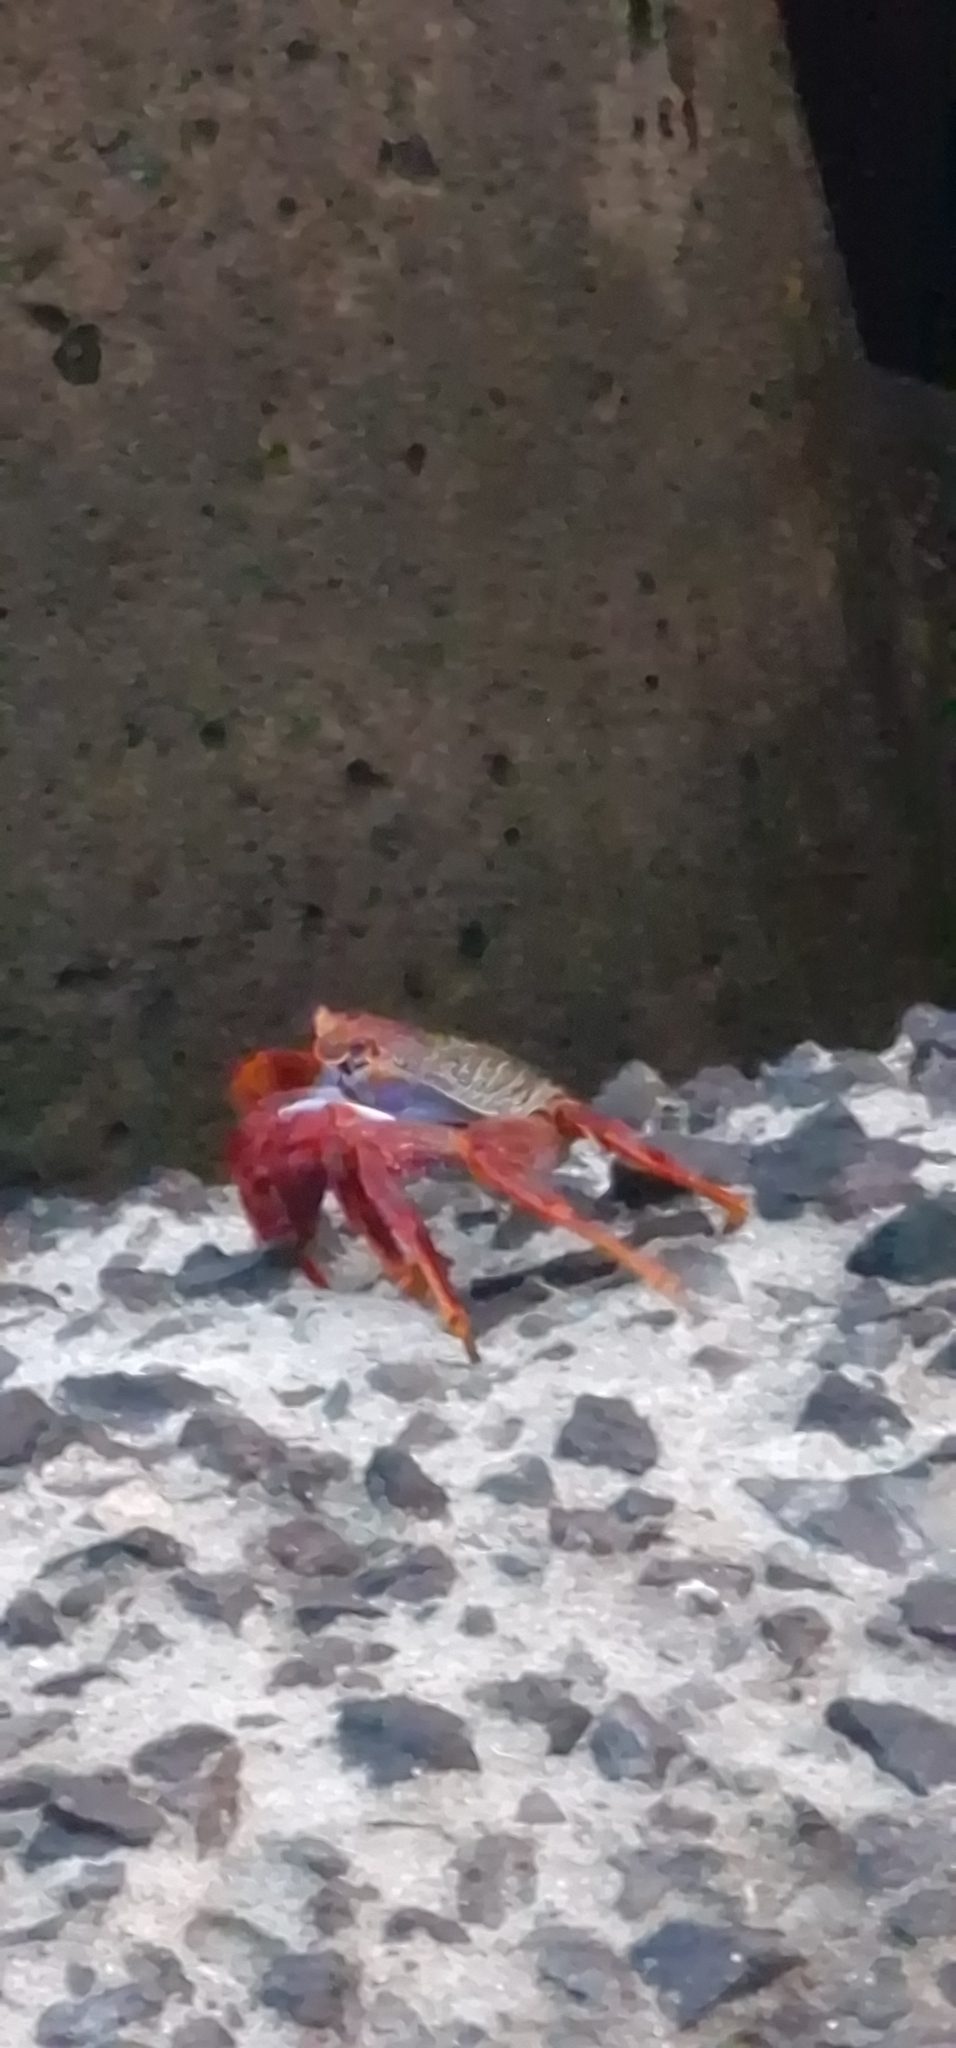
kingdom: Animalia
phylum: Arthropoda
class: Malacostraca
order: Decapoda
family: Grapsidae
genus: Grapsus
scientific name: Grapsus adscensionis
